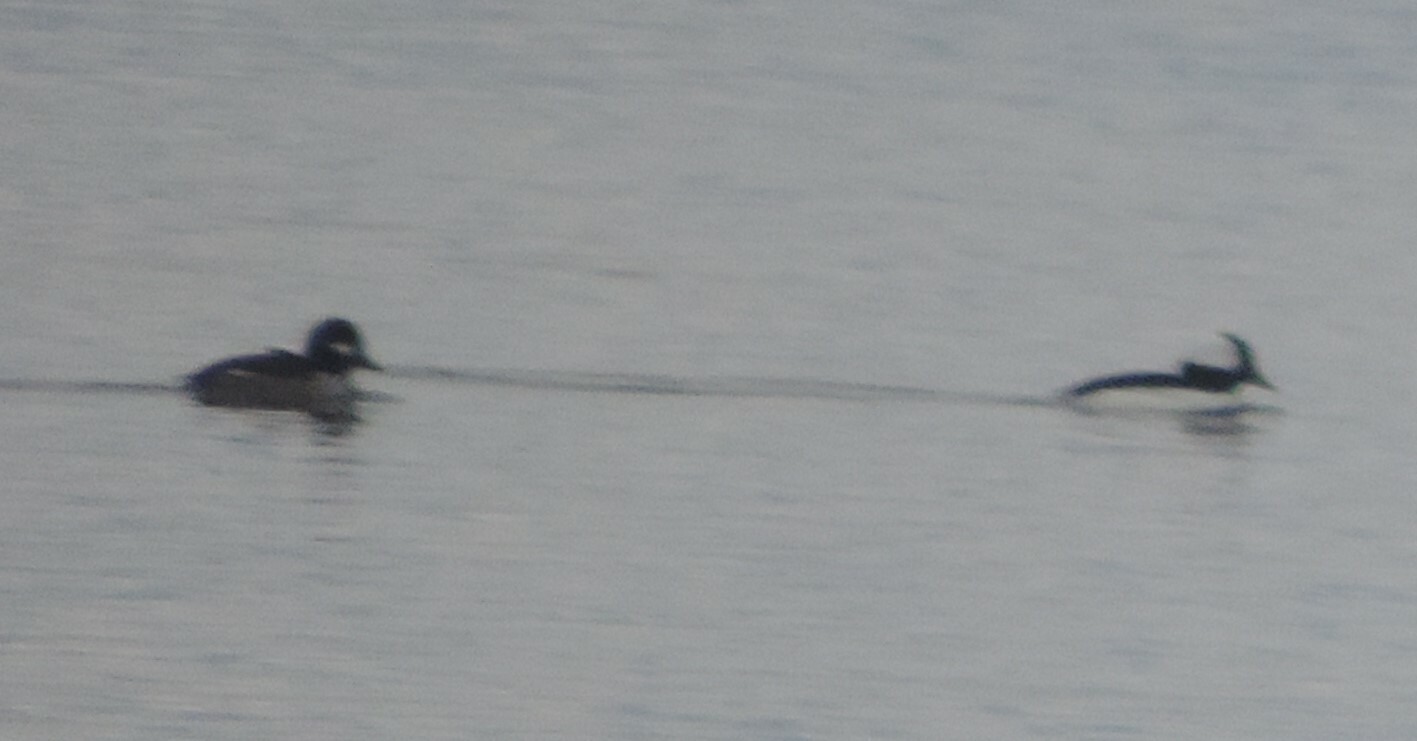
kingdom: Animalia
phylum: Chordata
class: Aves
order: Anseriformes
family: Anatidae
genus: Bucephala
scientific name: Bucephala albeola
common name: Bufflehead
